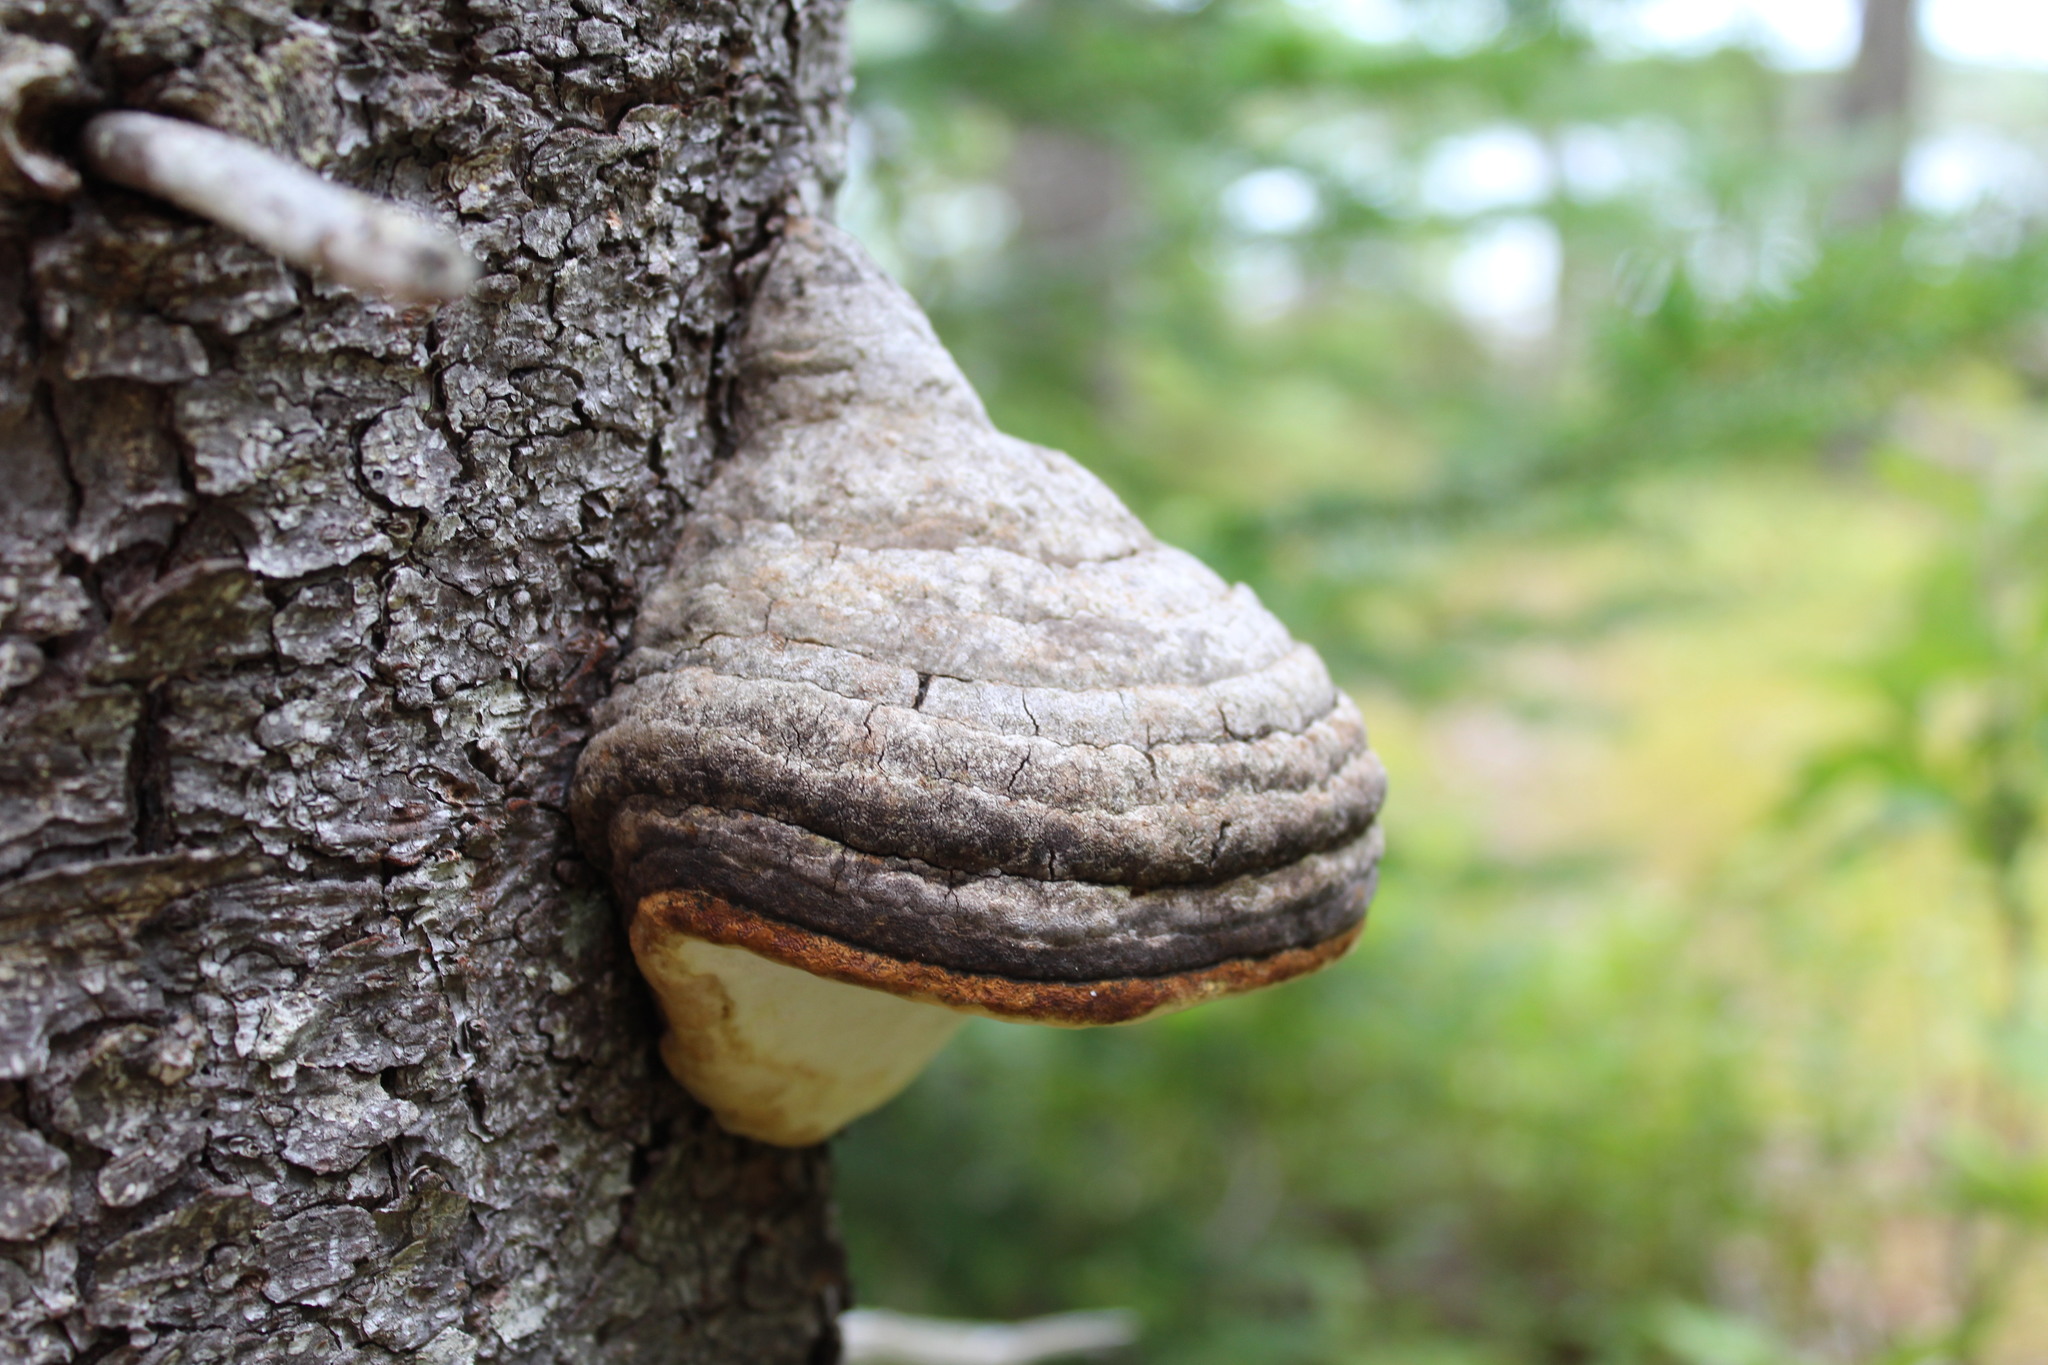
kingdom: Fungi
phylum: Basidiomycota
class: Agaricomycetes
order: Polyporales
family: Fomitopsidaceae
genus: Fomitopsis
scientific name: Fomitopsis mounceae
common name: Northern red belt
